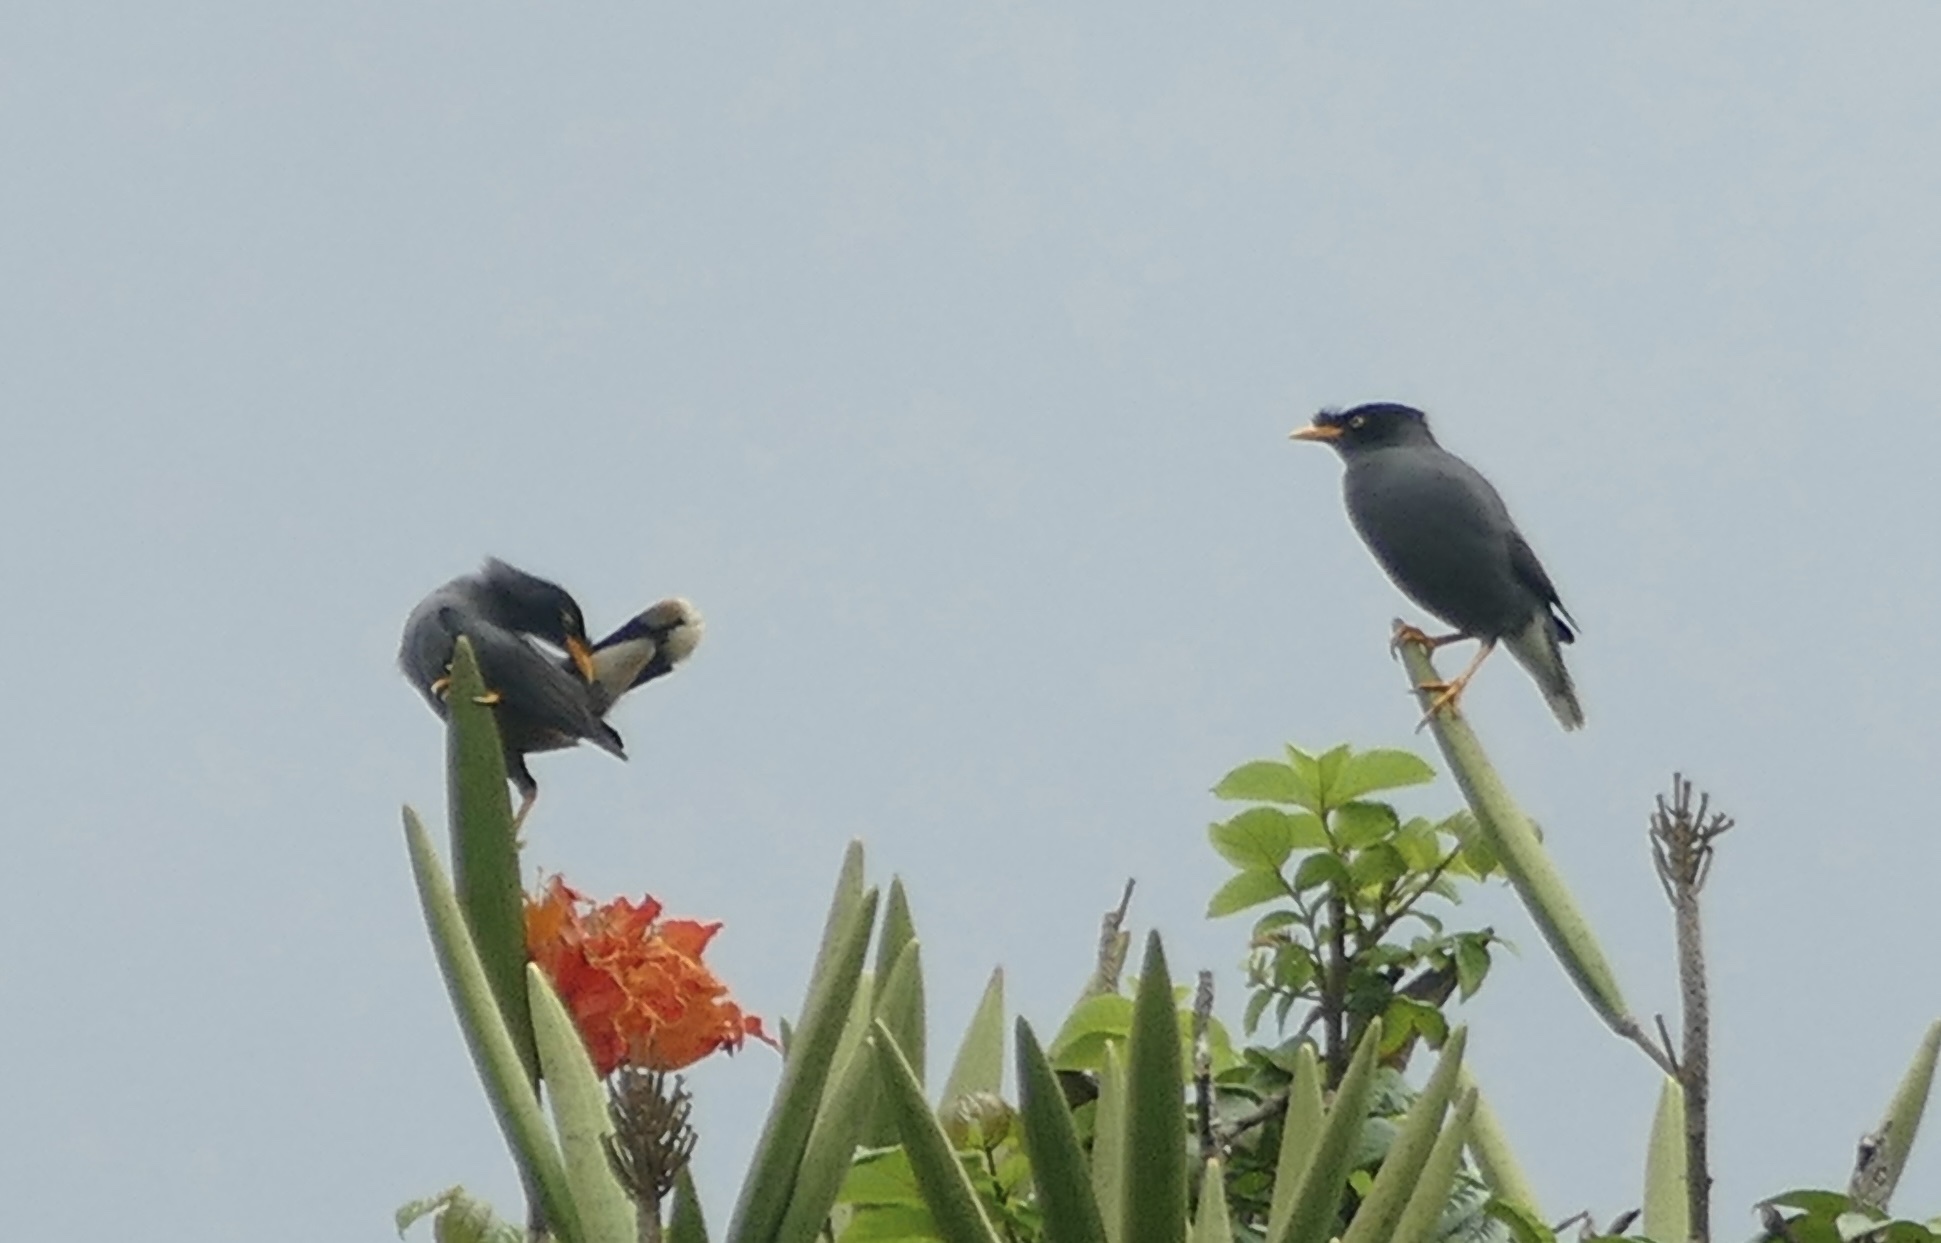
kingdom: Animalia
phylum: Chordata
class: Aves
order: Passeriformes
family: Sturnidae
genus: Acridotheres
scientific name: Acridotheres javanicus
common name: Javan myna
